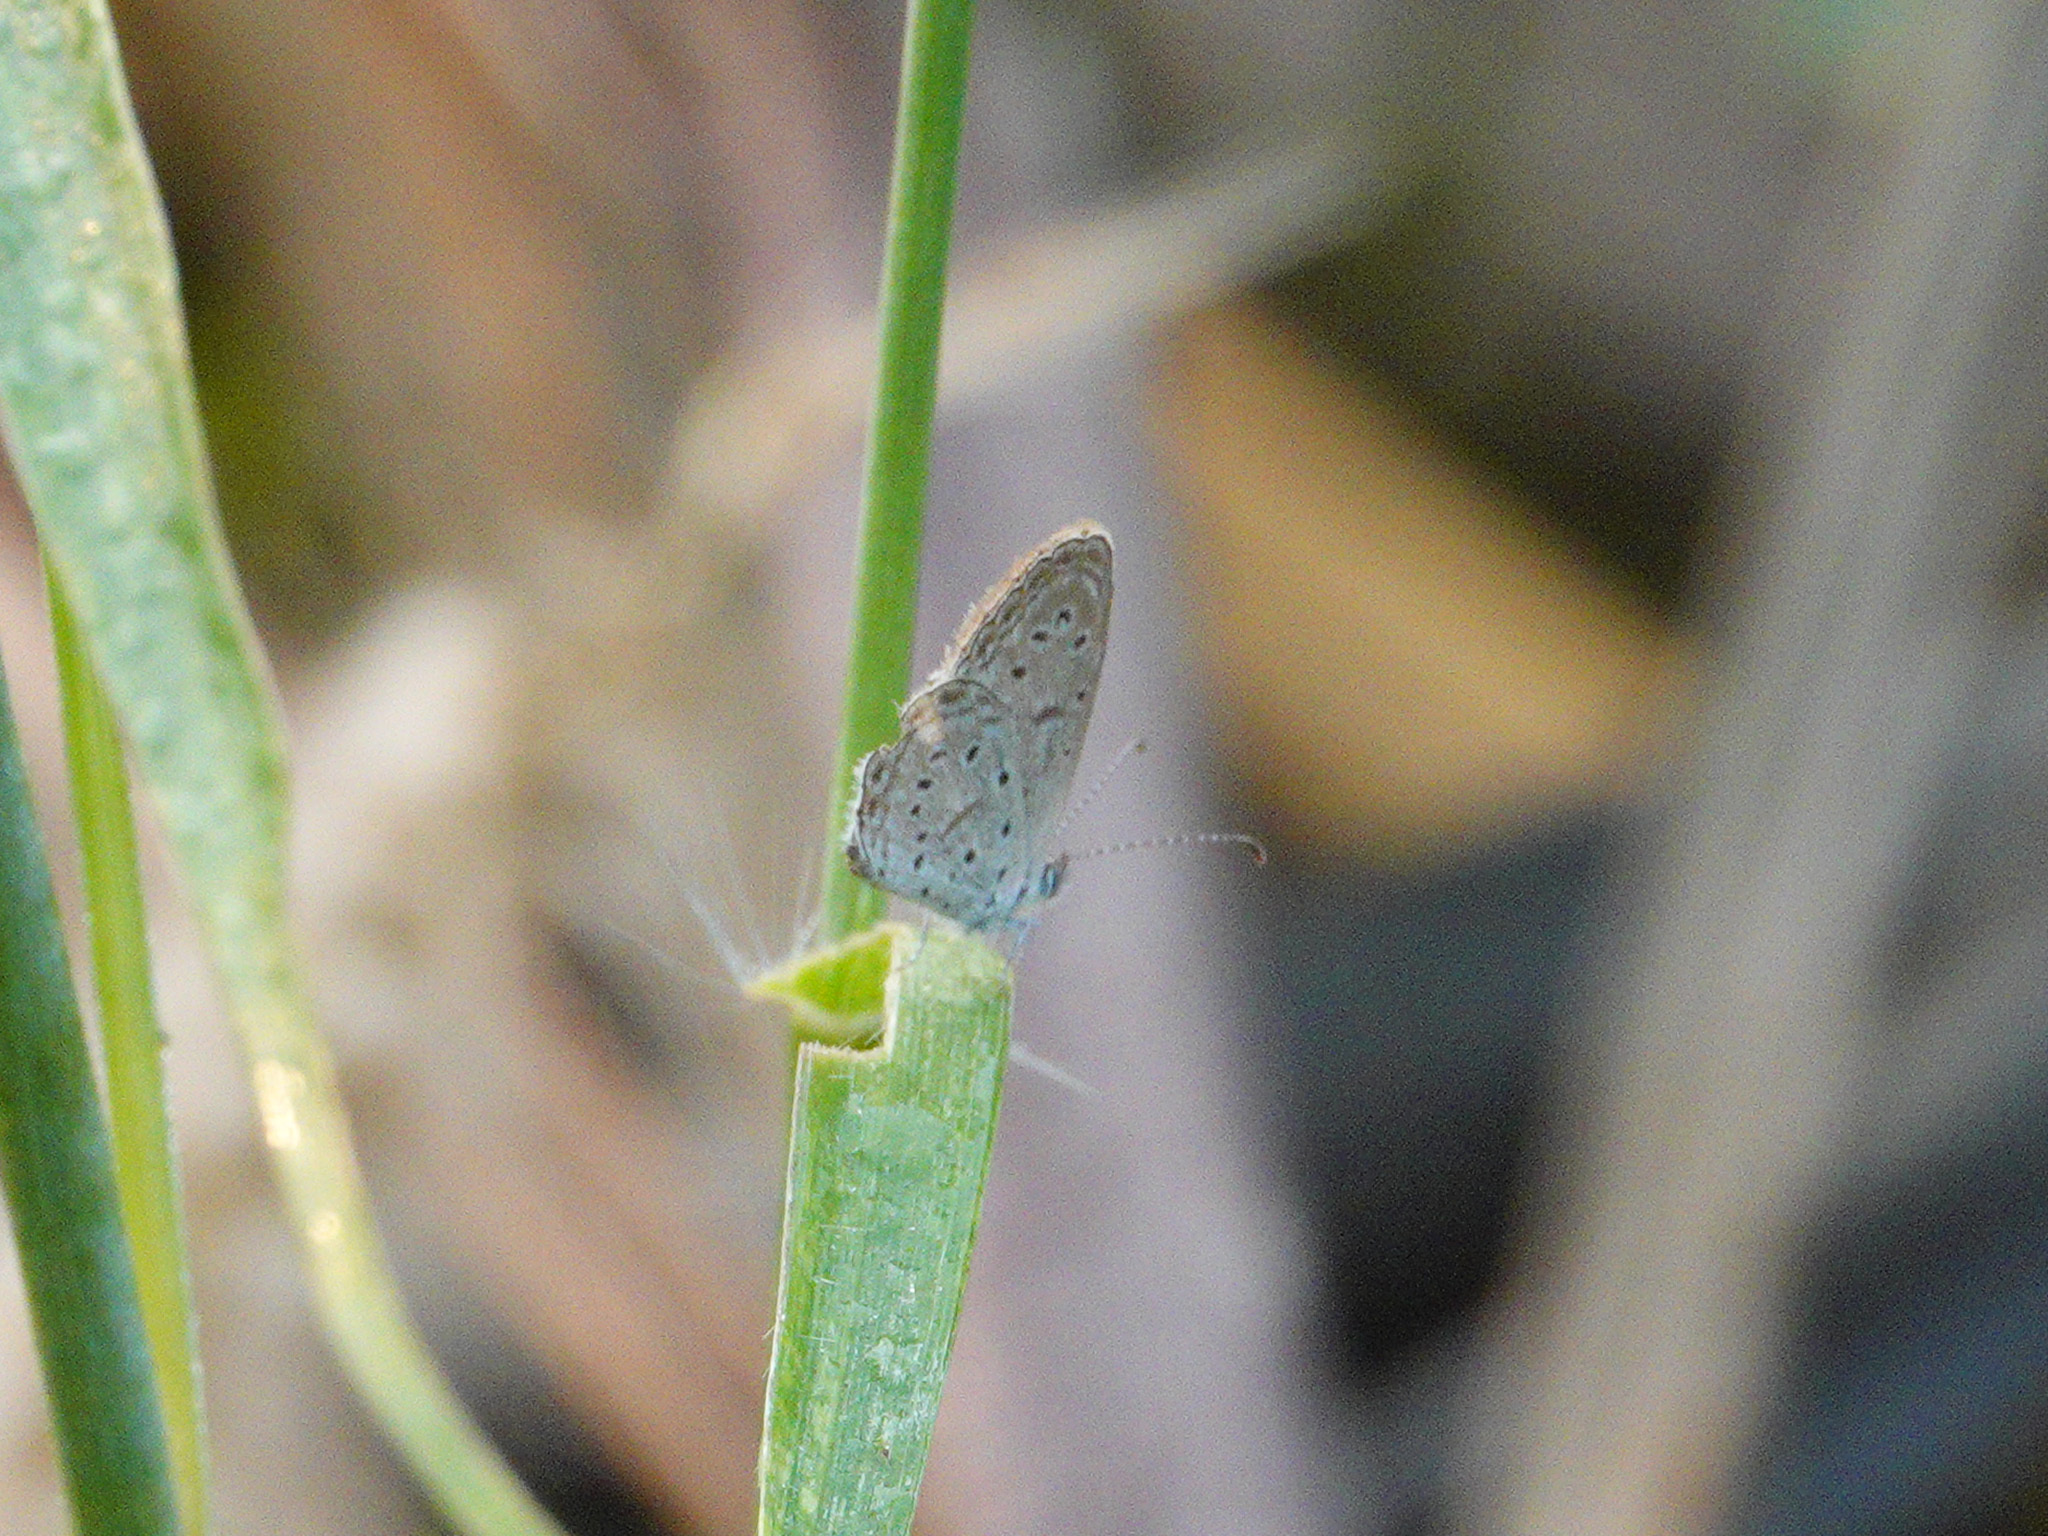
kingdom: Animalia
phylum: Arthropoda
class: Insecta
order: Lepidoptera
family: Lycaenidae
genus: Zizula
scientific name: Zizula hylax
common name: Gaika blue
